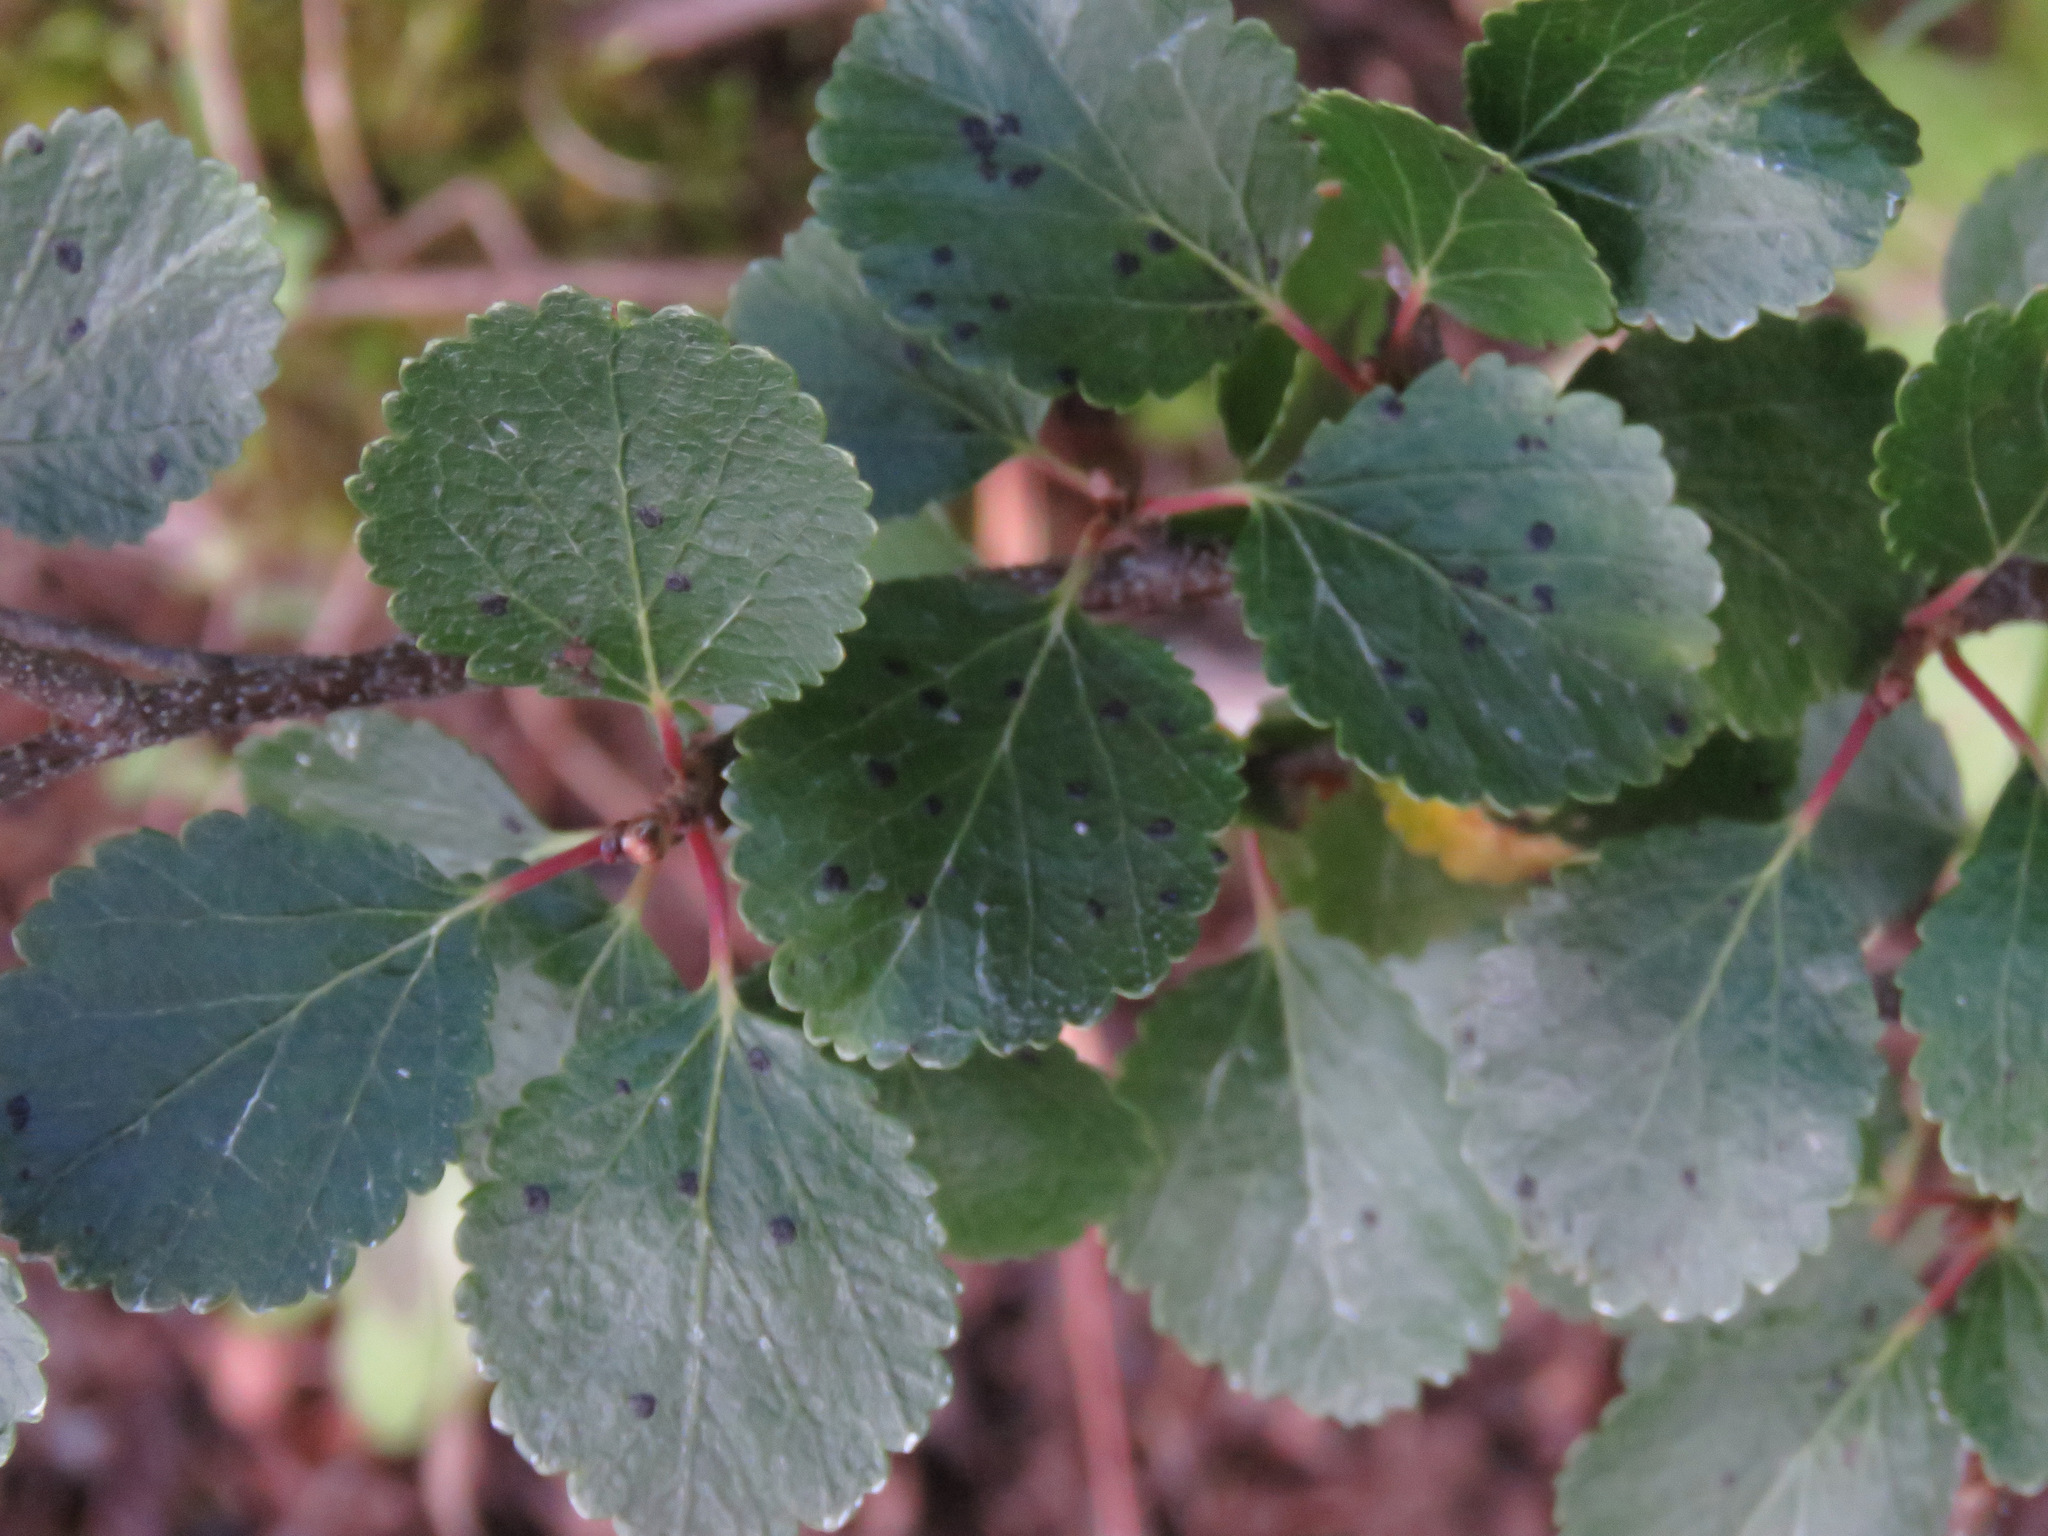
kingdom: Plantae
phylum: Tracheophyta
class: Magnoliopsida
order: Fagales
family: Betulaceae
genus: Betula
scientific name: Betula glandulosa
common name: Dwarf birch
